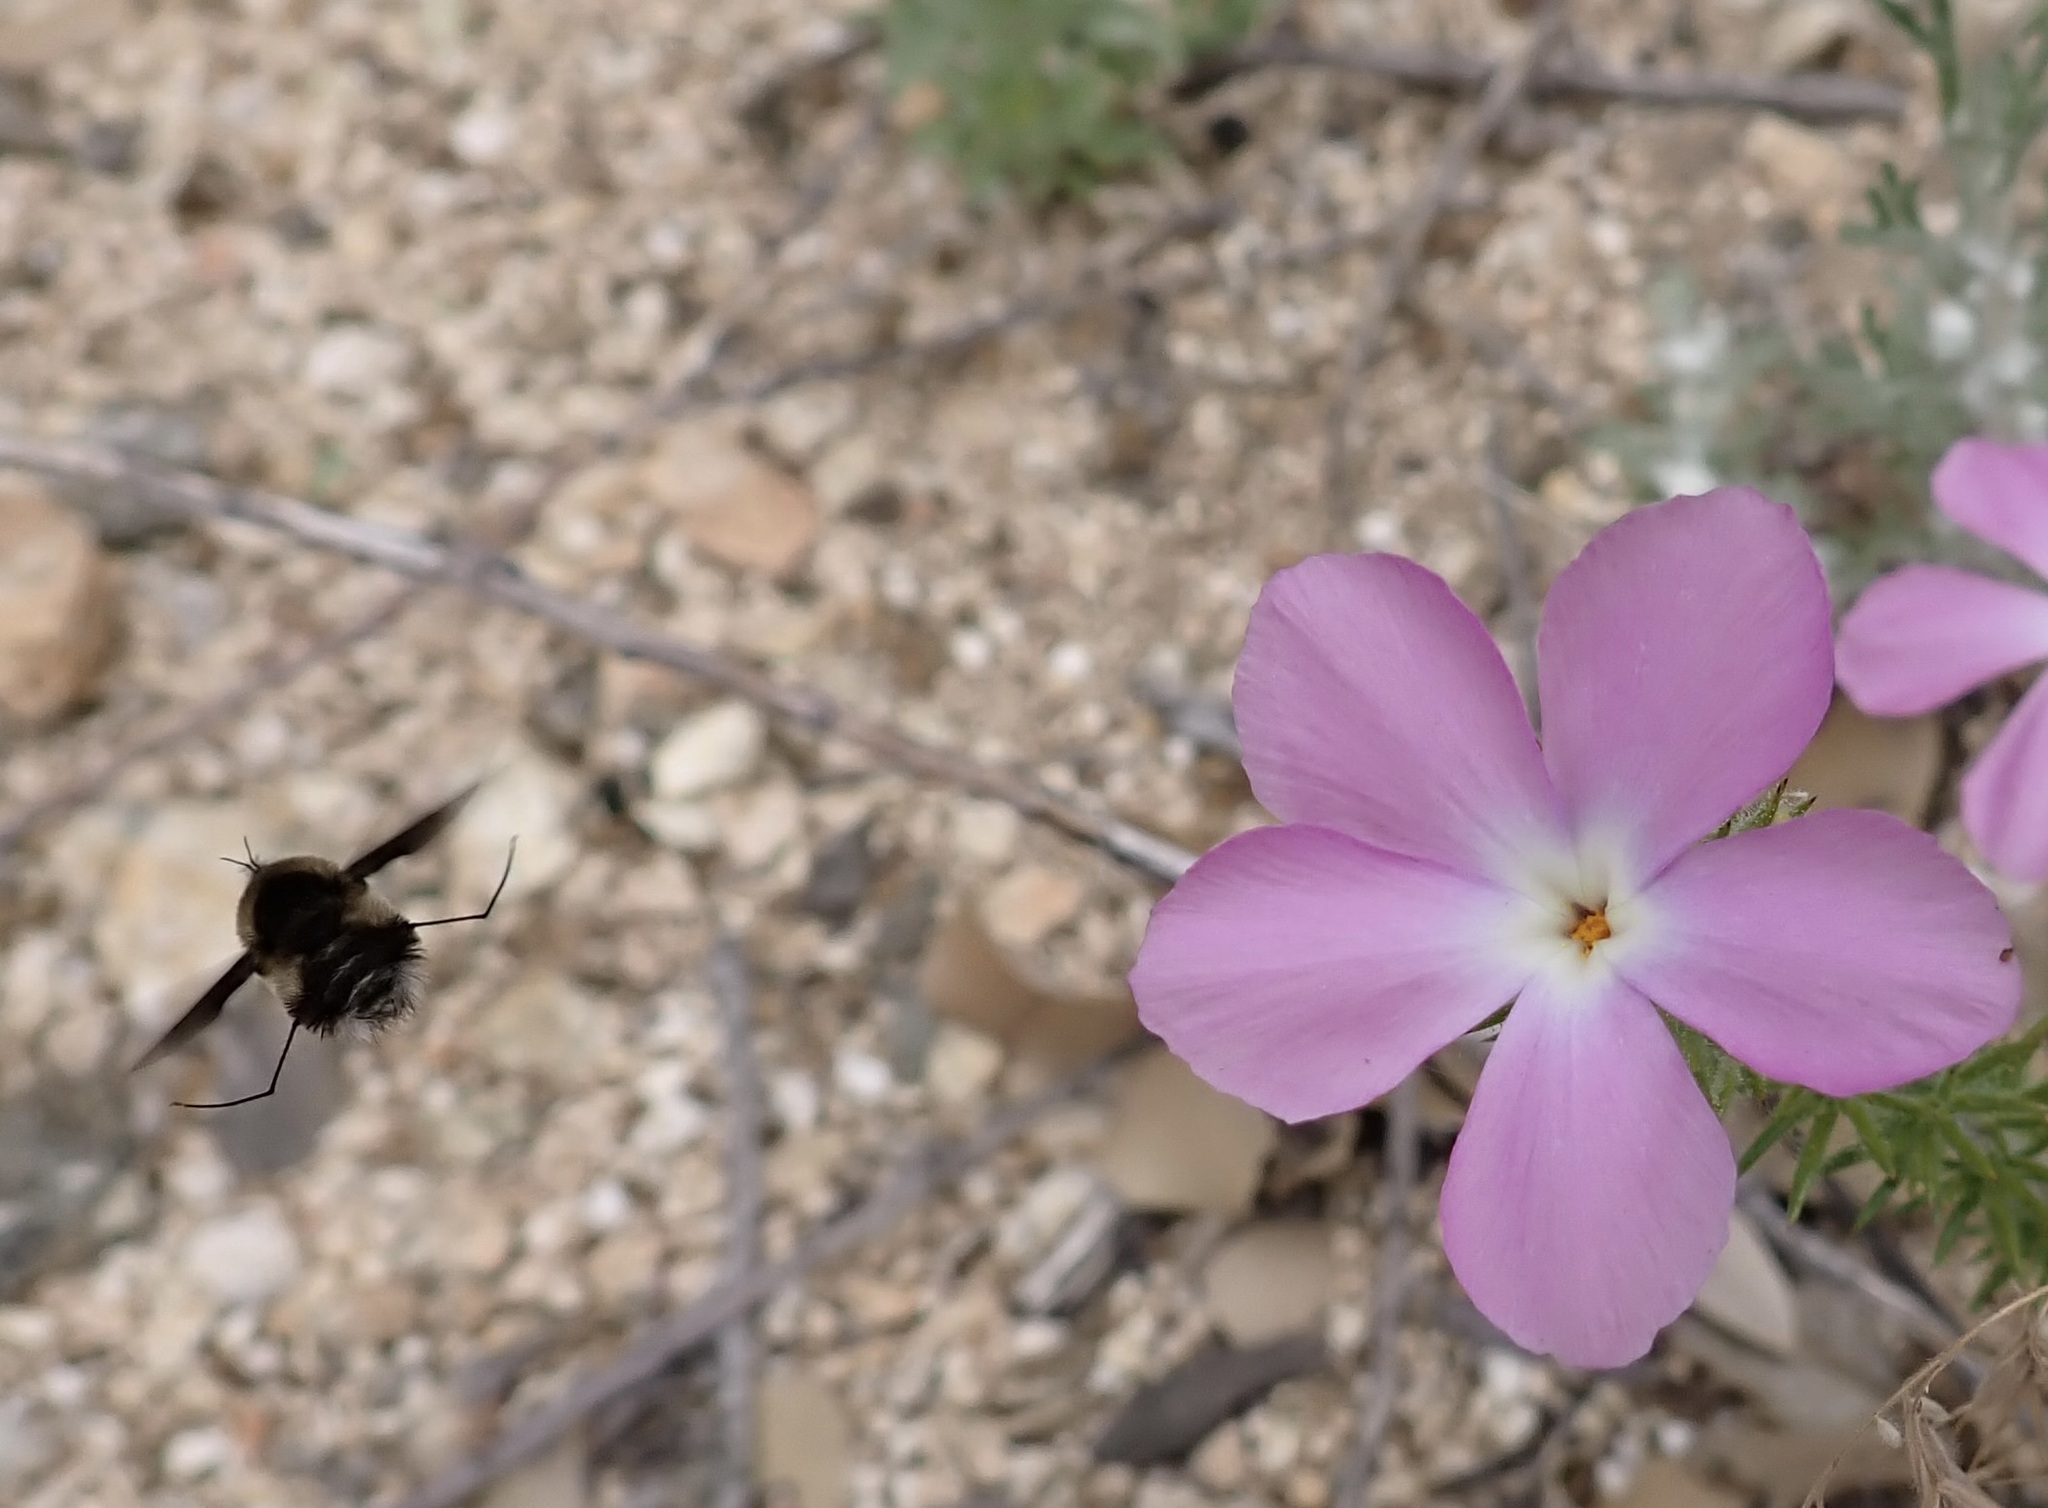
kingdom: Plantae
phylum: Tracheophyta
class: Magnoliopsida
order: Ericales
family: Polemoniaceae
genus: Linanthus
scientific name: Linanthus californicus
